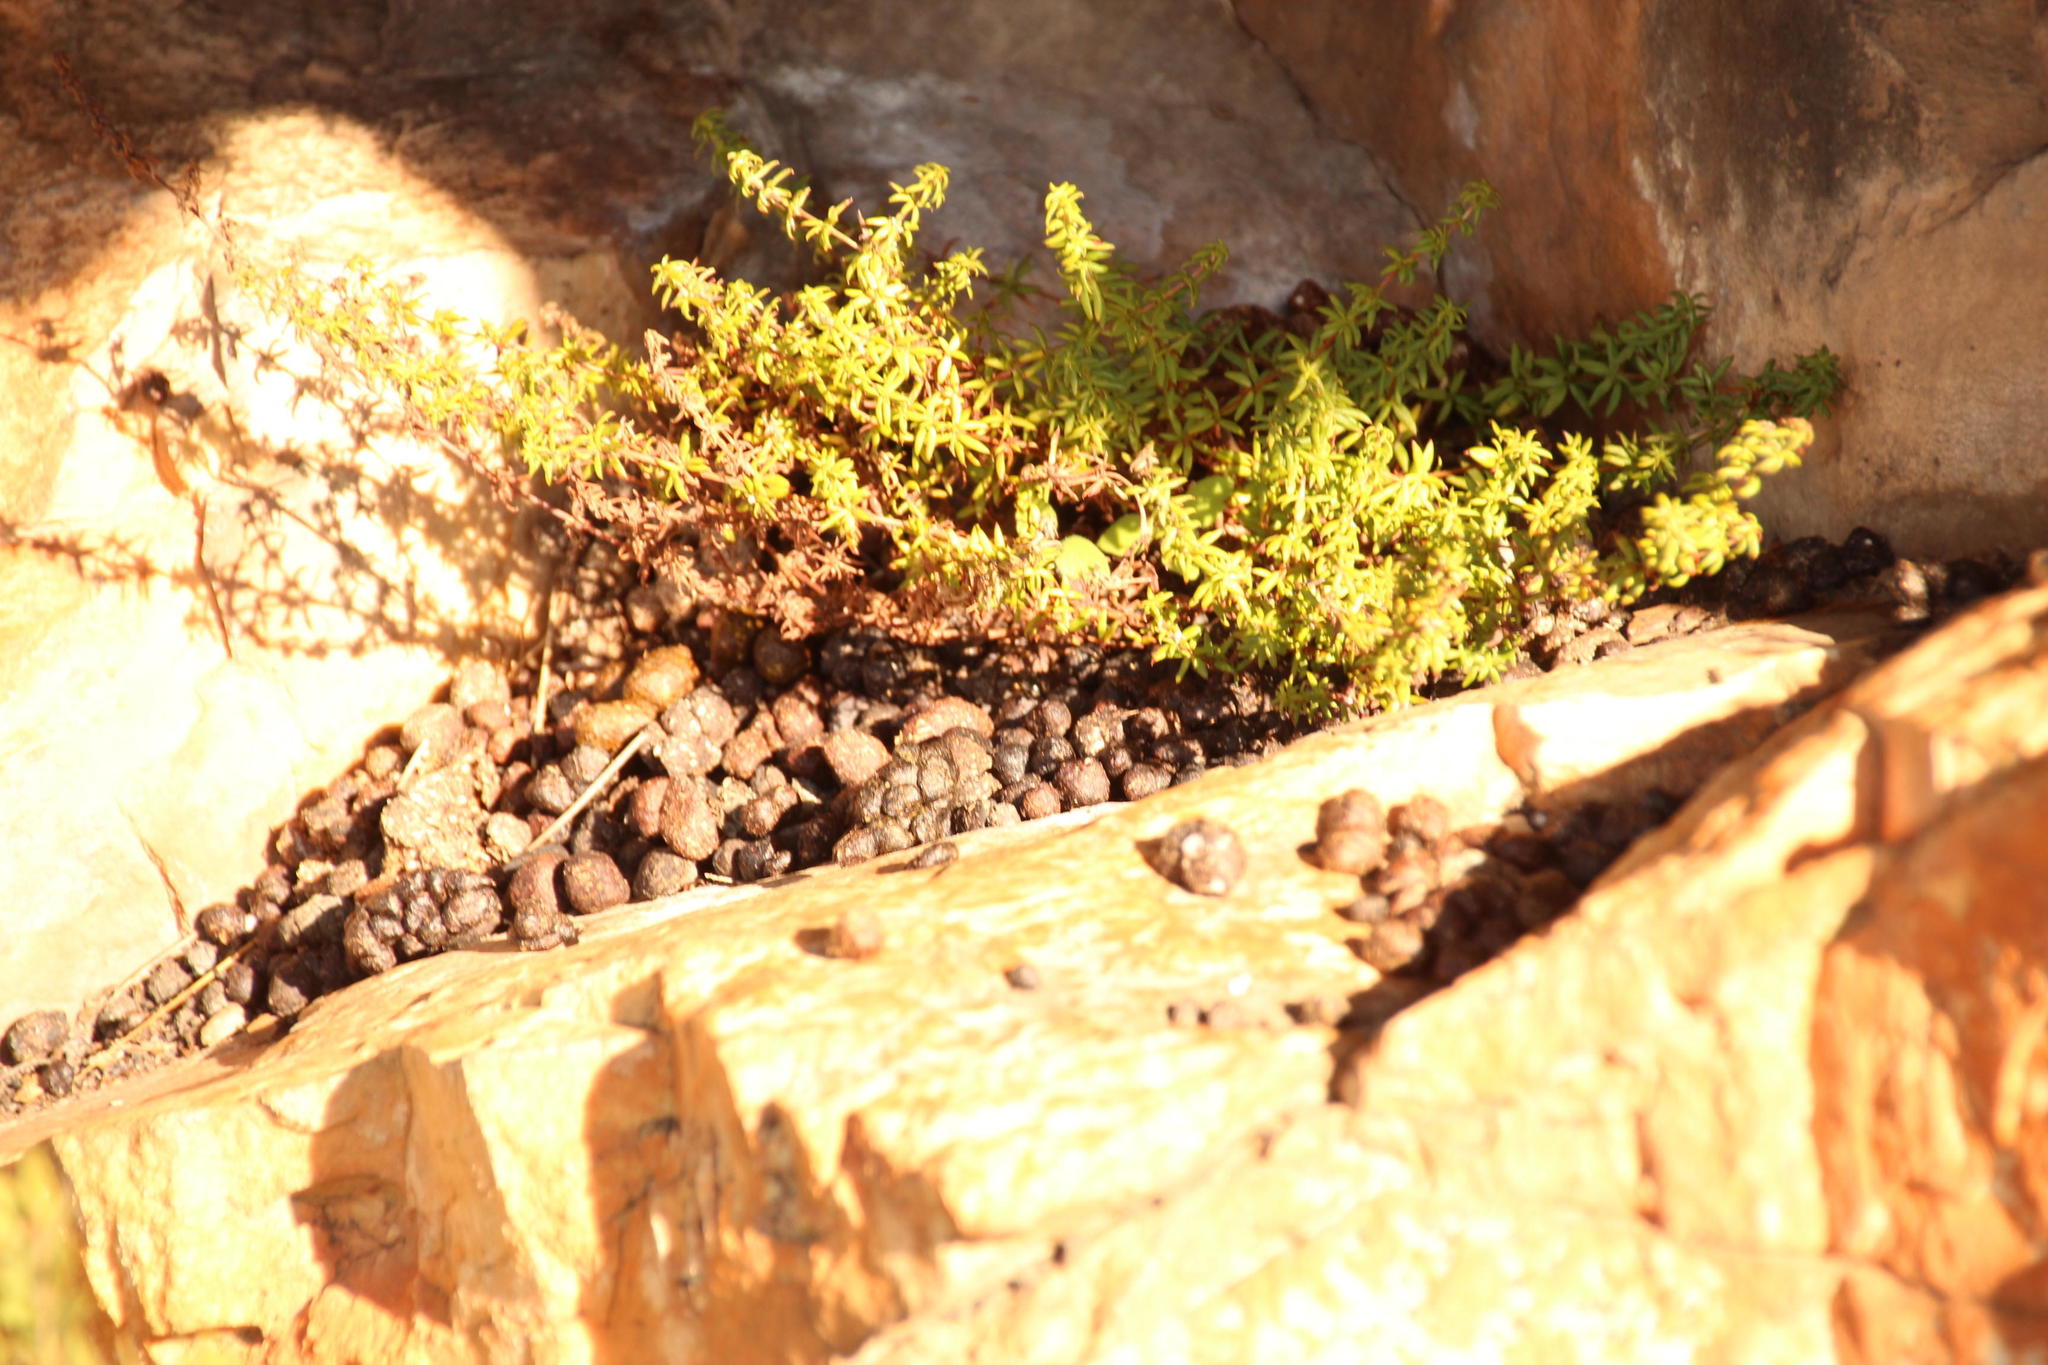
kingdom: Animalia
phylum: Chordata
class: Mammalia
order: Hyracoidea
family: Procaviidae
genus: Procavia
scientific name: Procavia capensis
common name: Rock hyrax
